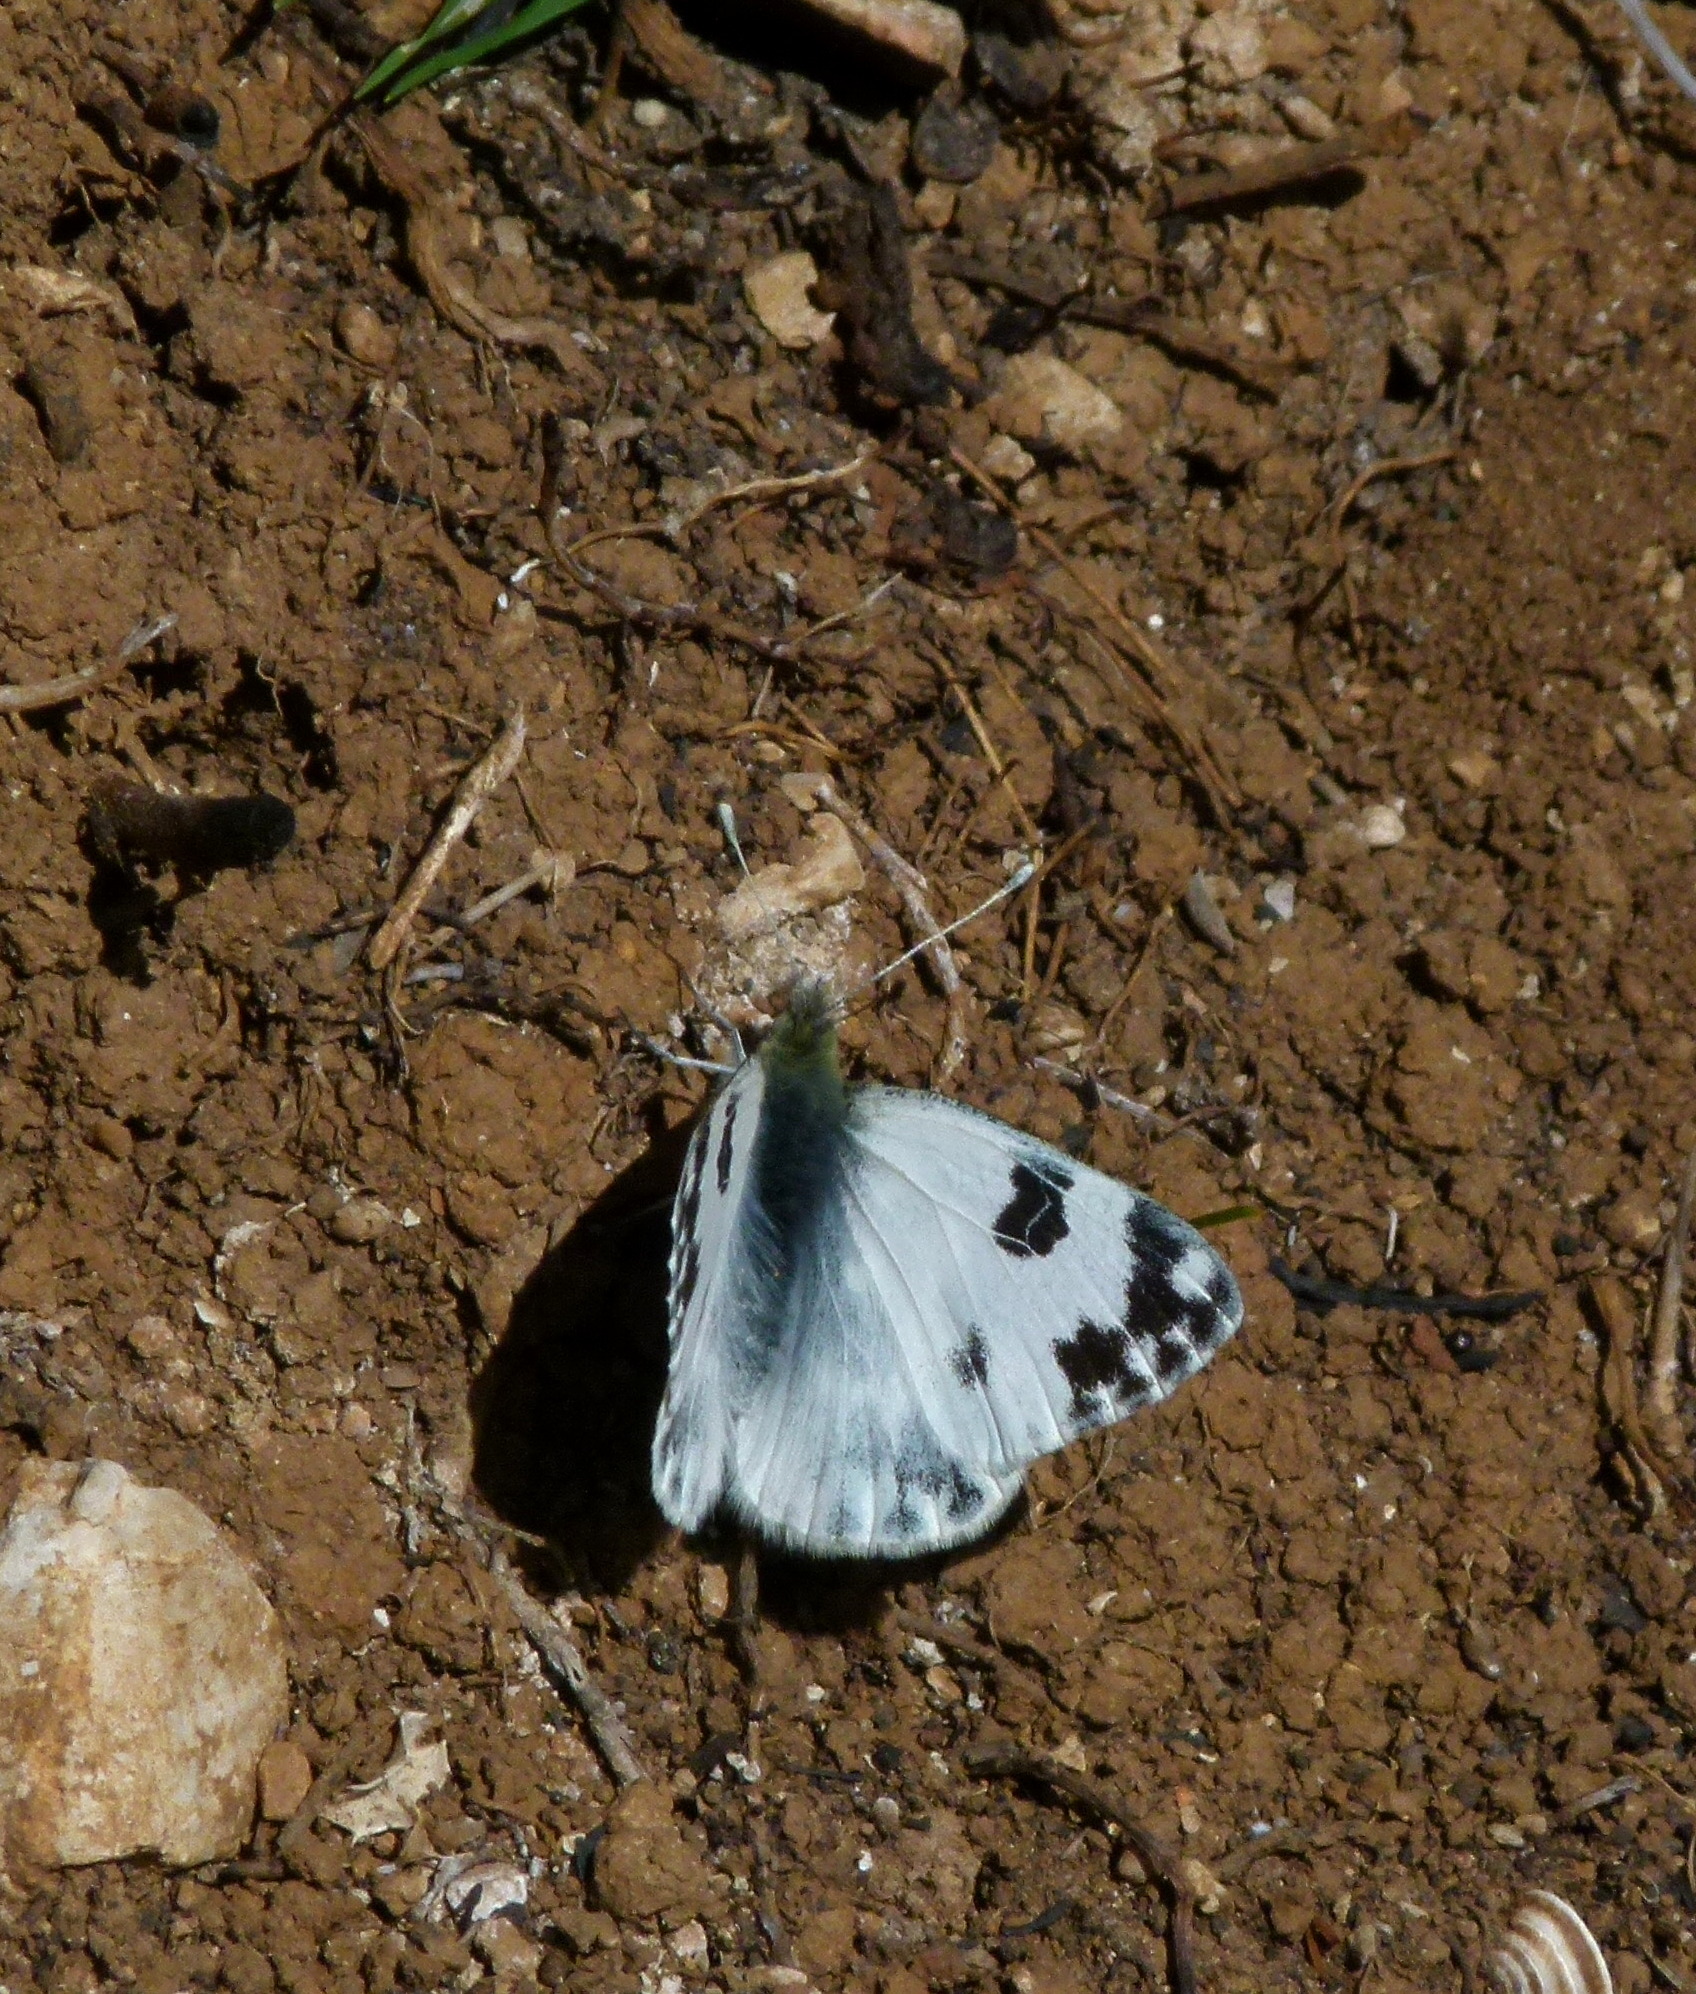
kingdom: Animalia
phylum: Arthropoda
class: Insecta
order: Lepidoptera
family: Pieridae
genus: Pontia
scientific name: Pontia daplidice
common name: Bath white
